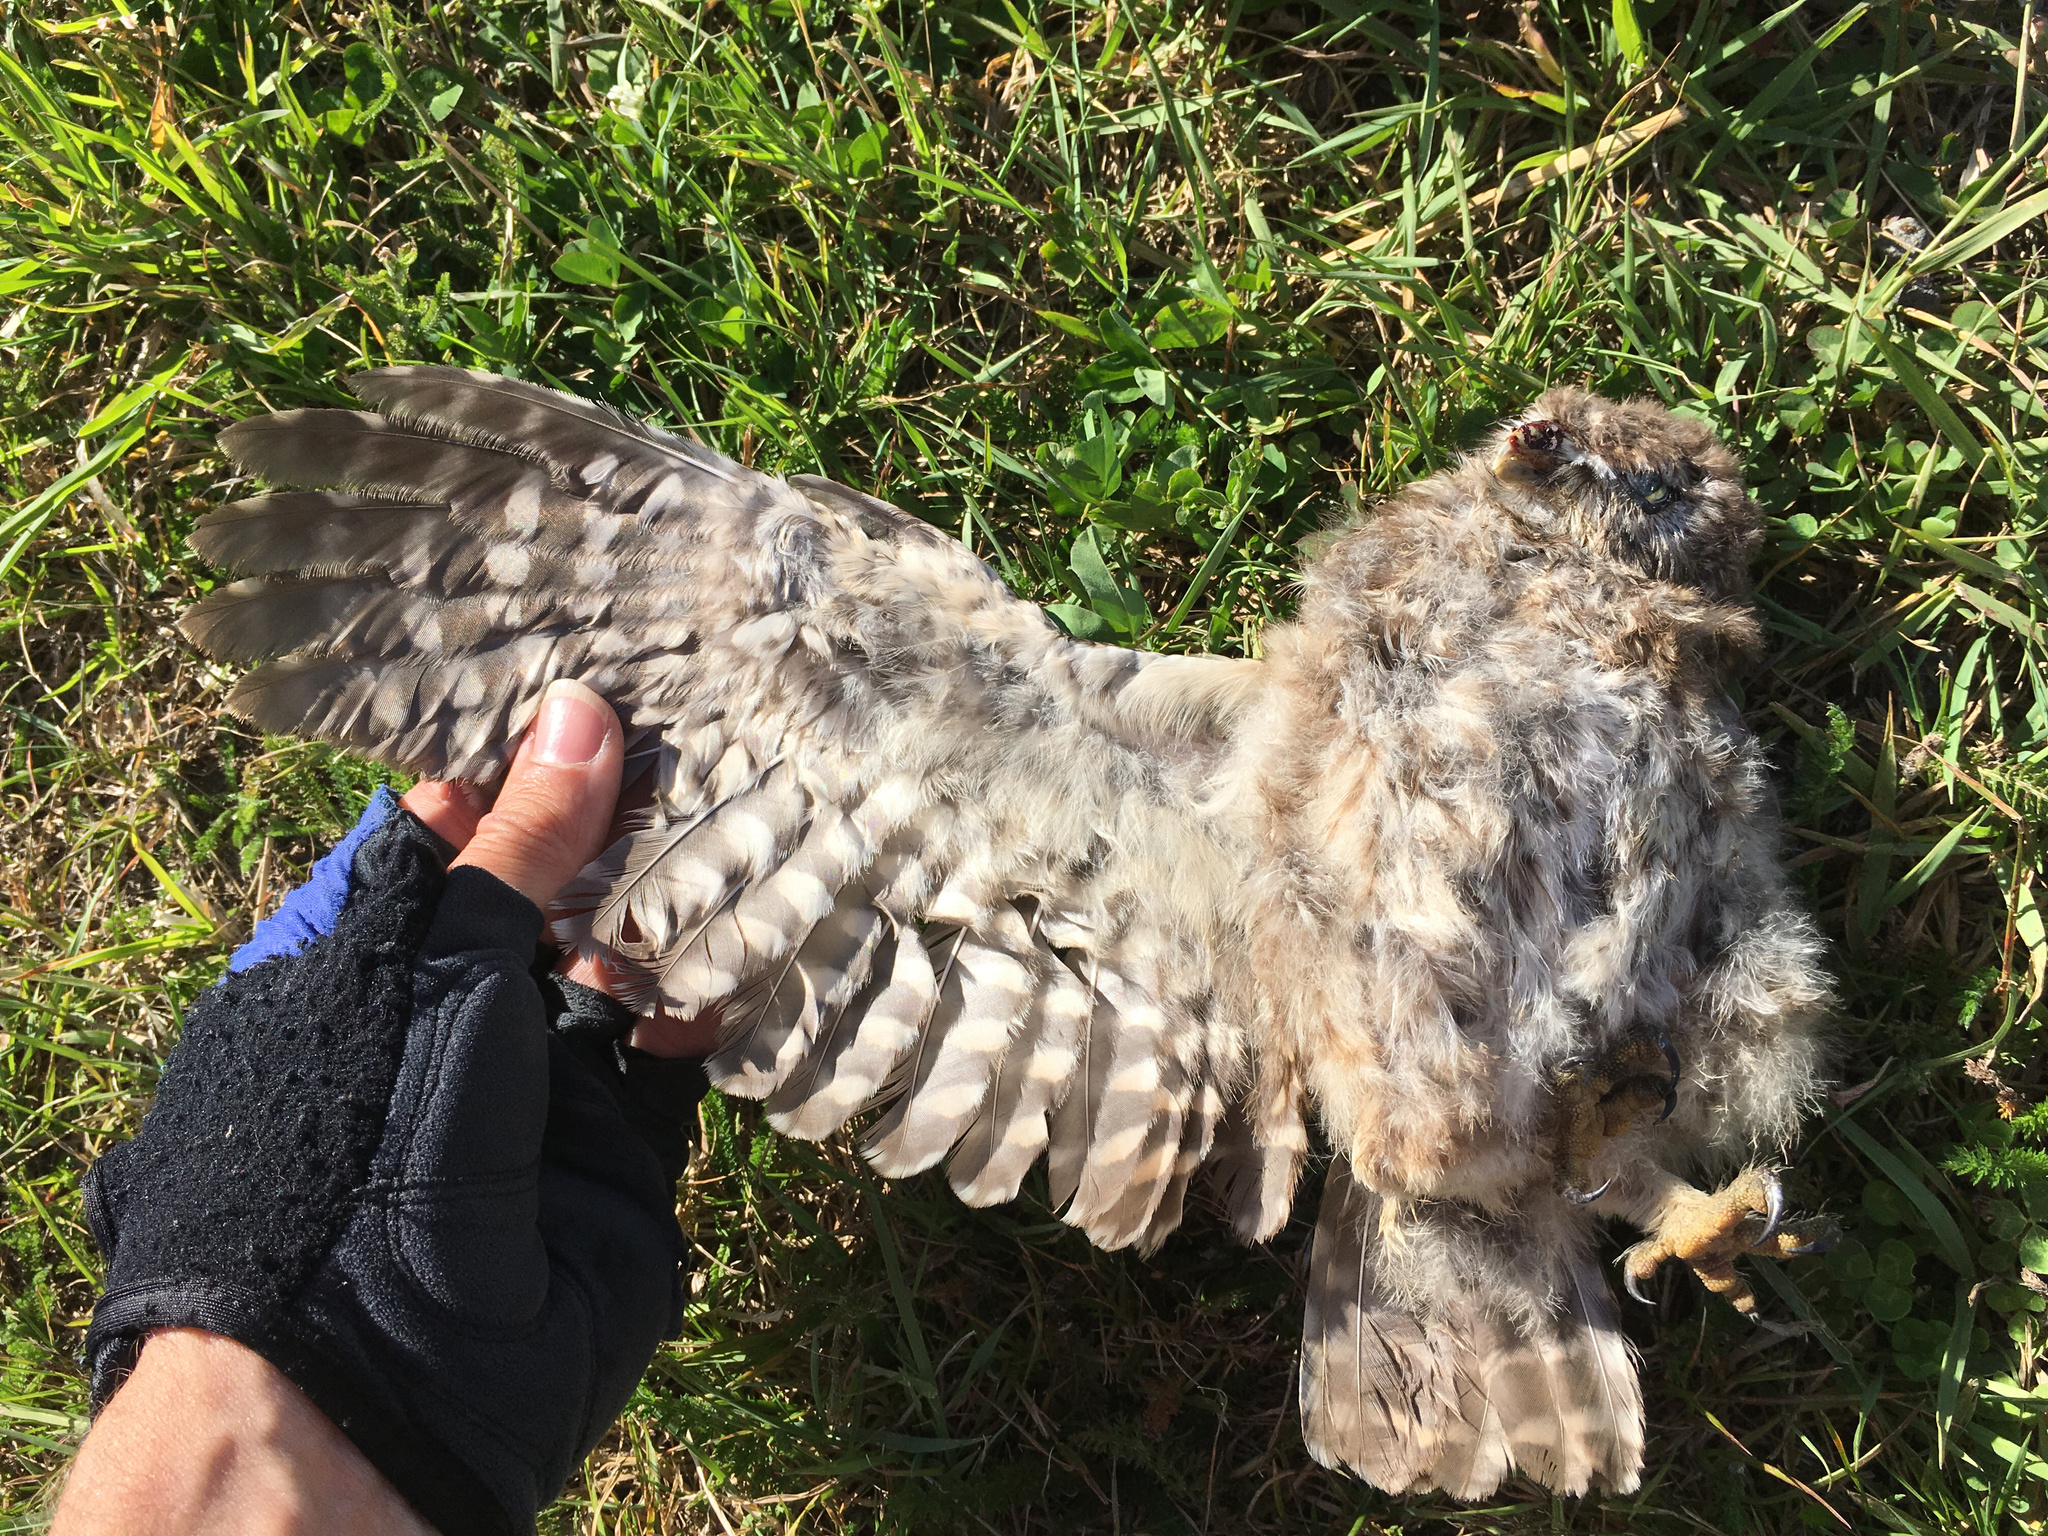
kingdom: Animalia
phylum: Chordata
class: Aves
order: Strigiformes
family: Strigidae
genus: Athene
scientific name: Athene noctua
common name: Little owl
